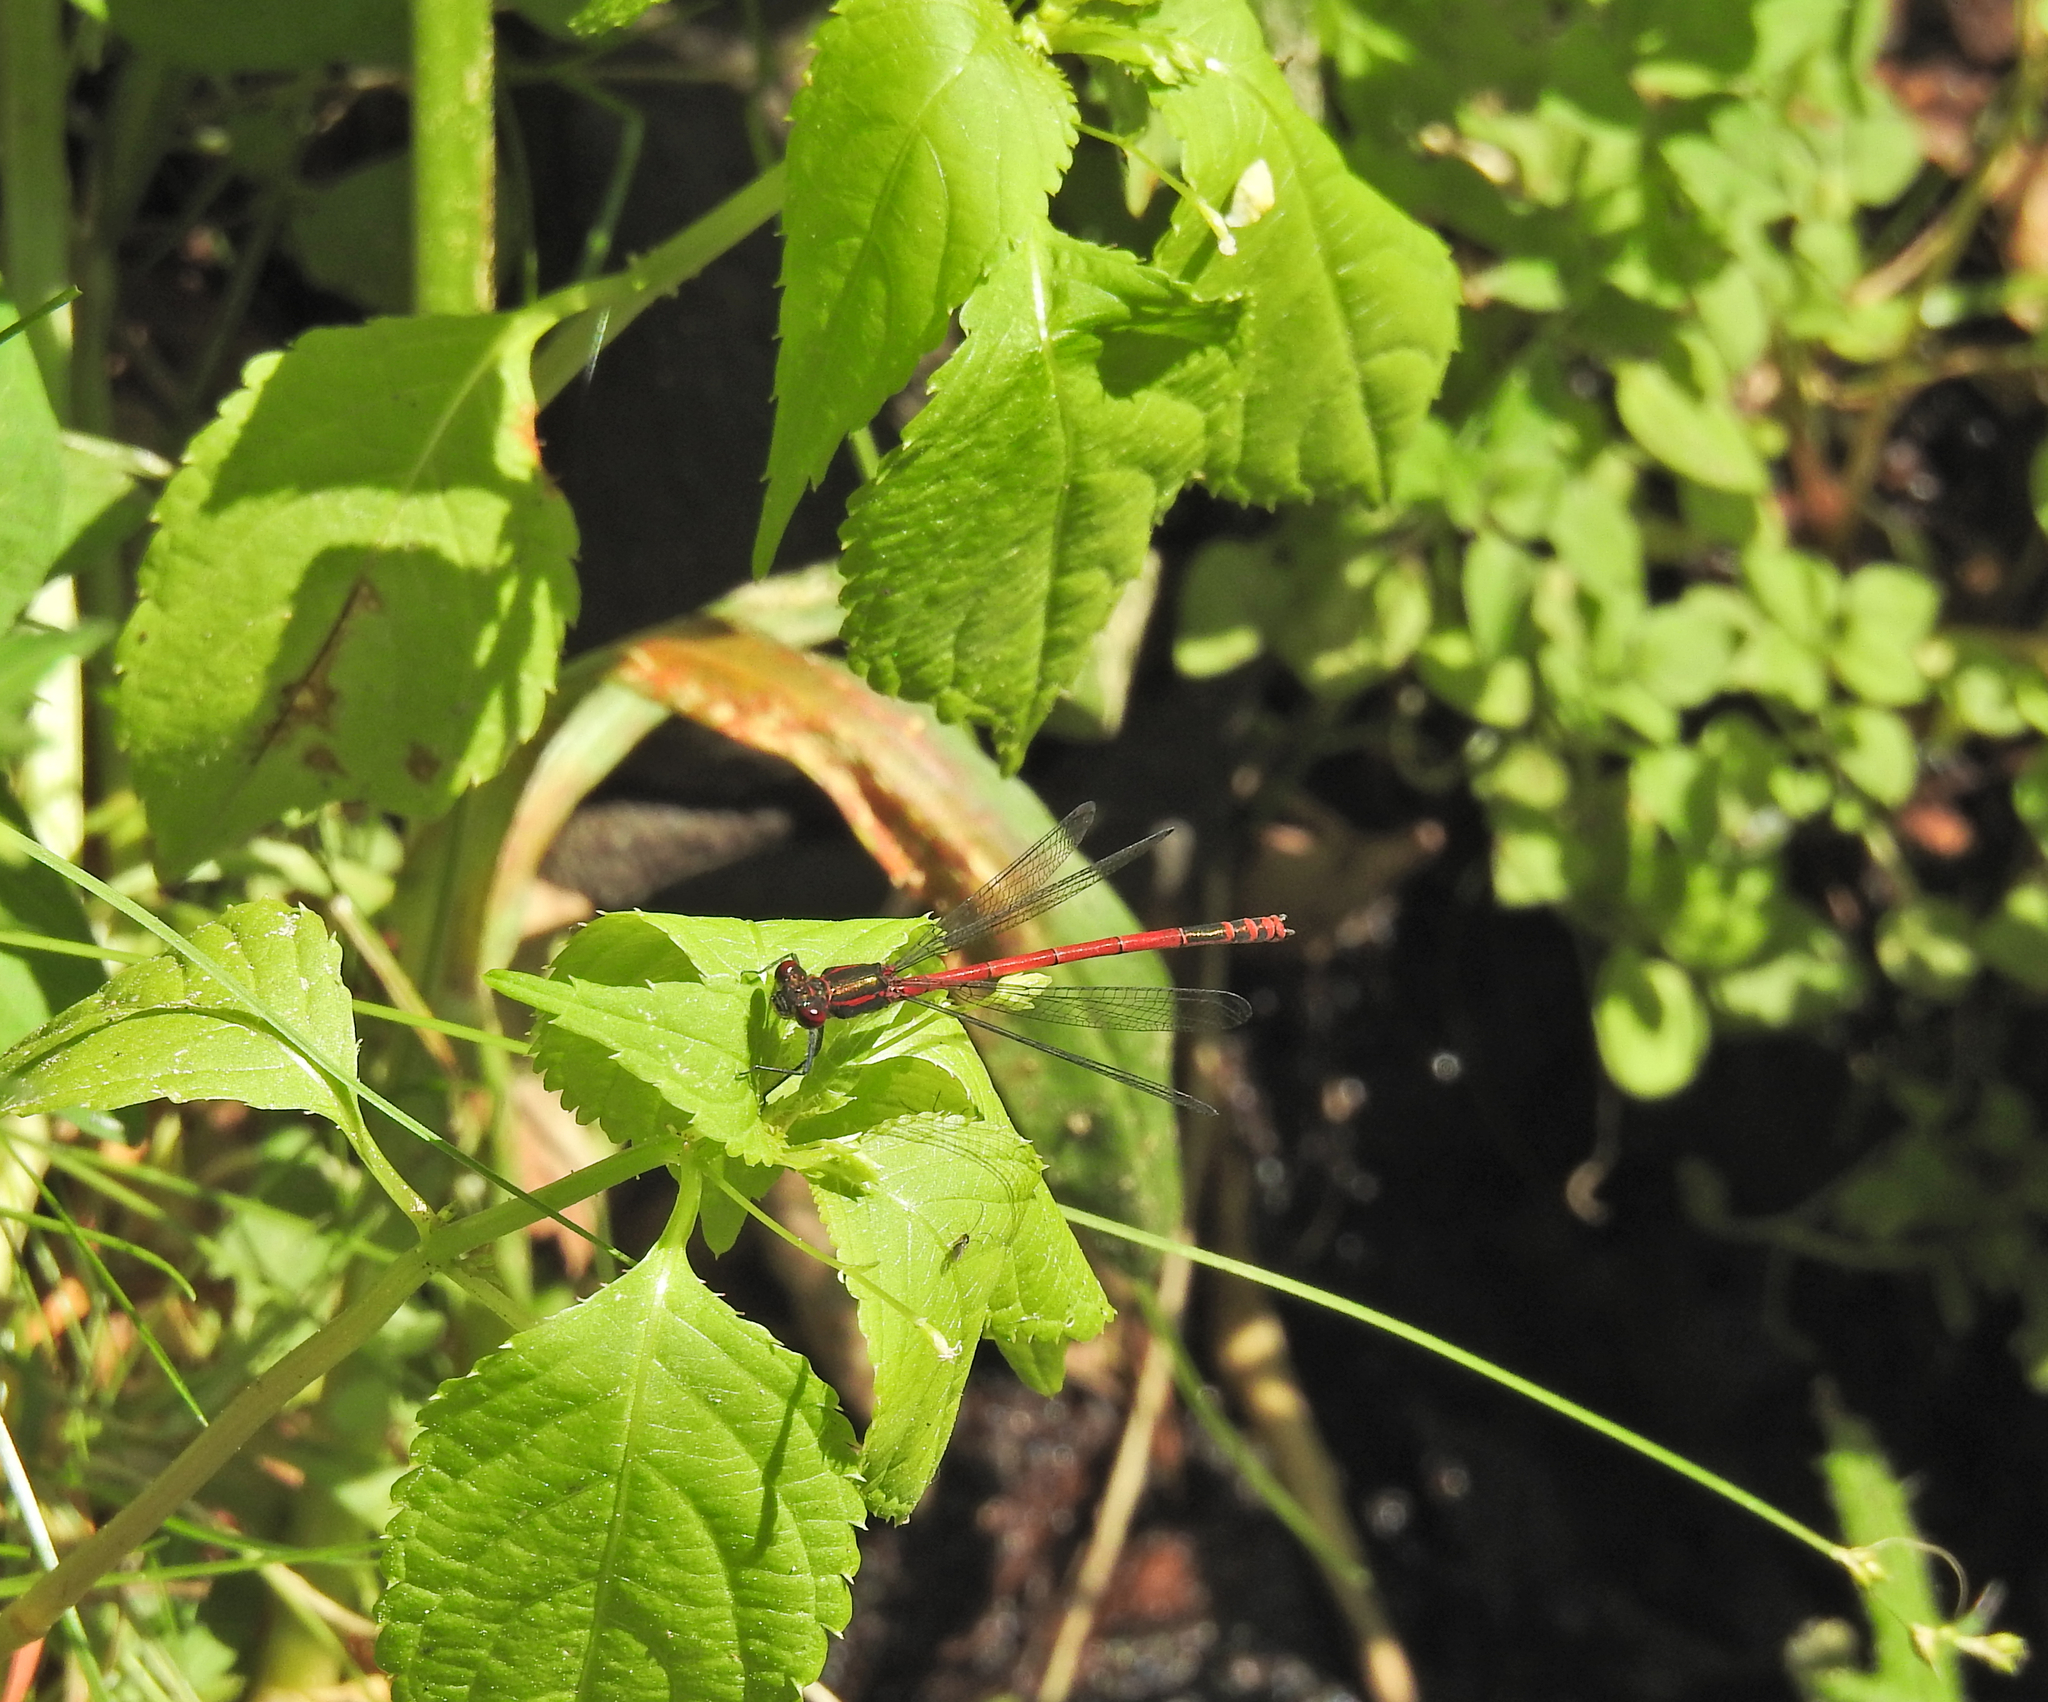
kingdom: Animalia
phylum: Arthropoda
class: Insecta
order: Odonata
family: Coenagrionidae
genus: Pyrrhosoma
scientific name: Pyrrhosoma nymphula
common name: Large red damsel
